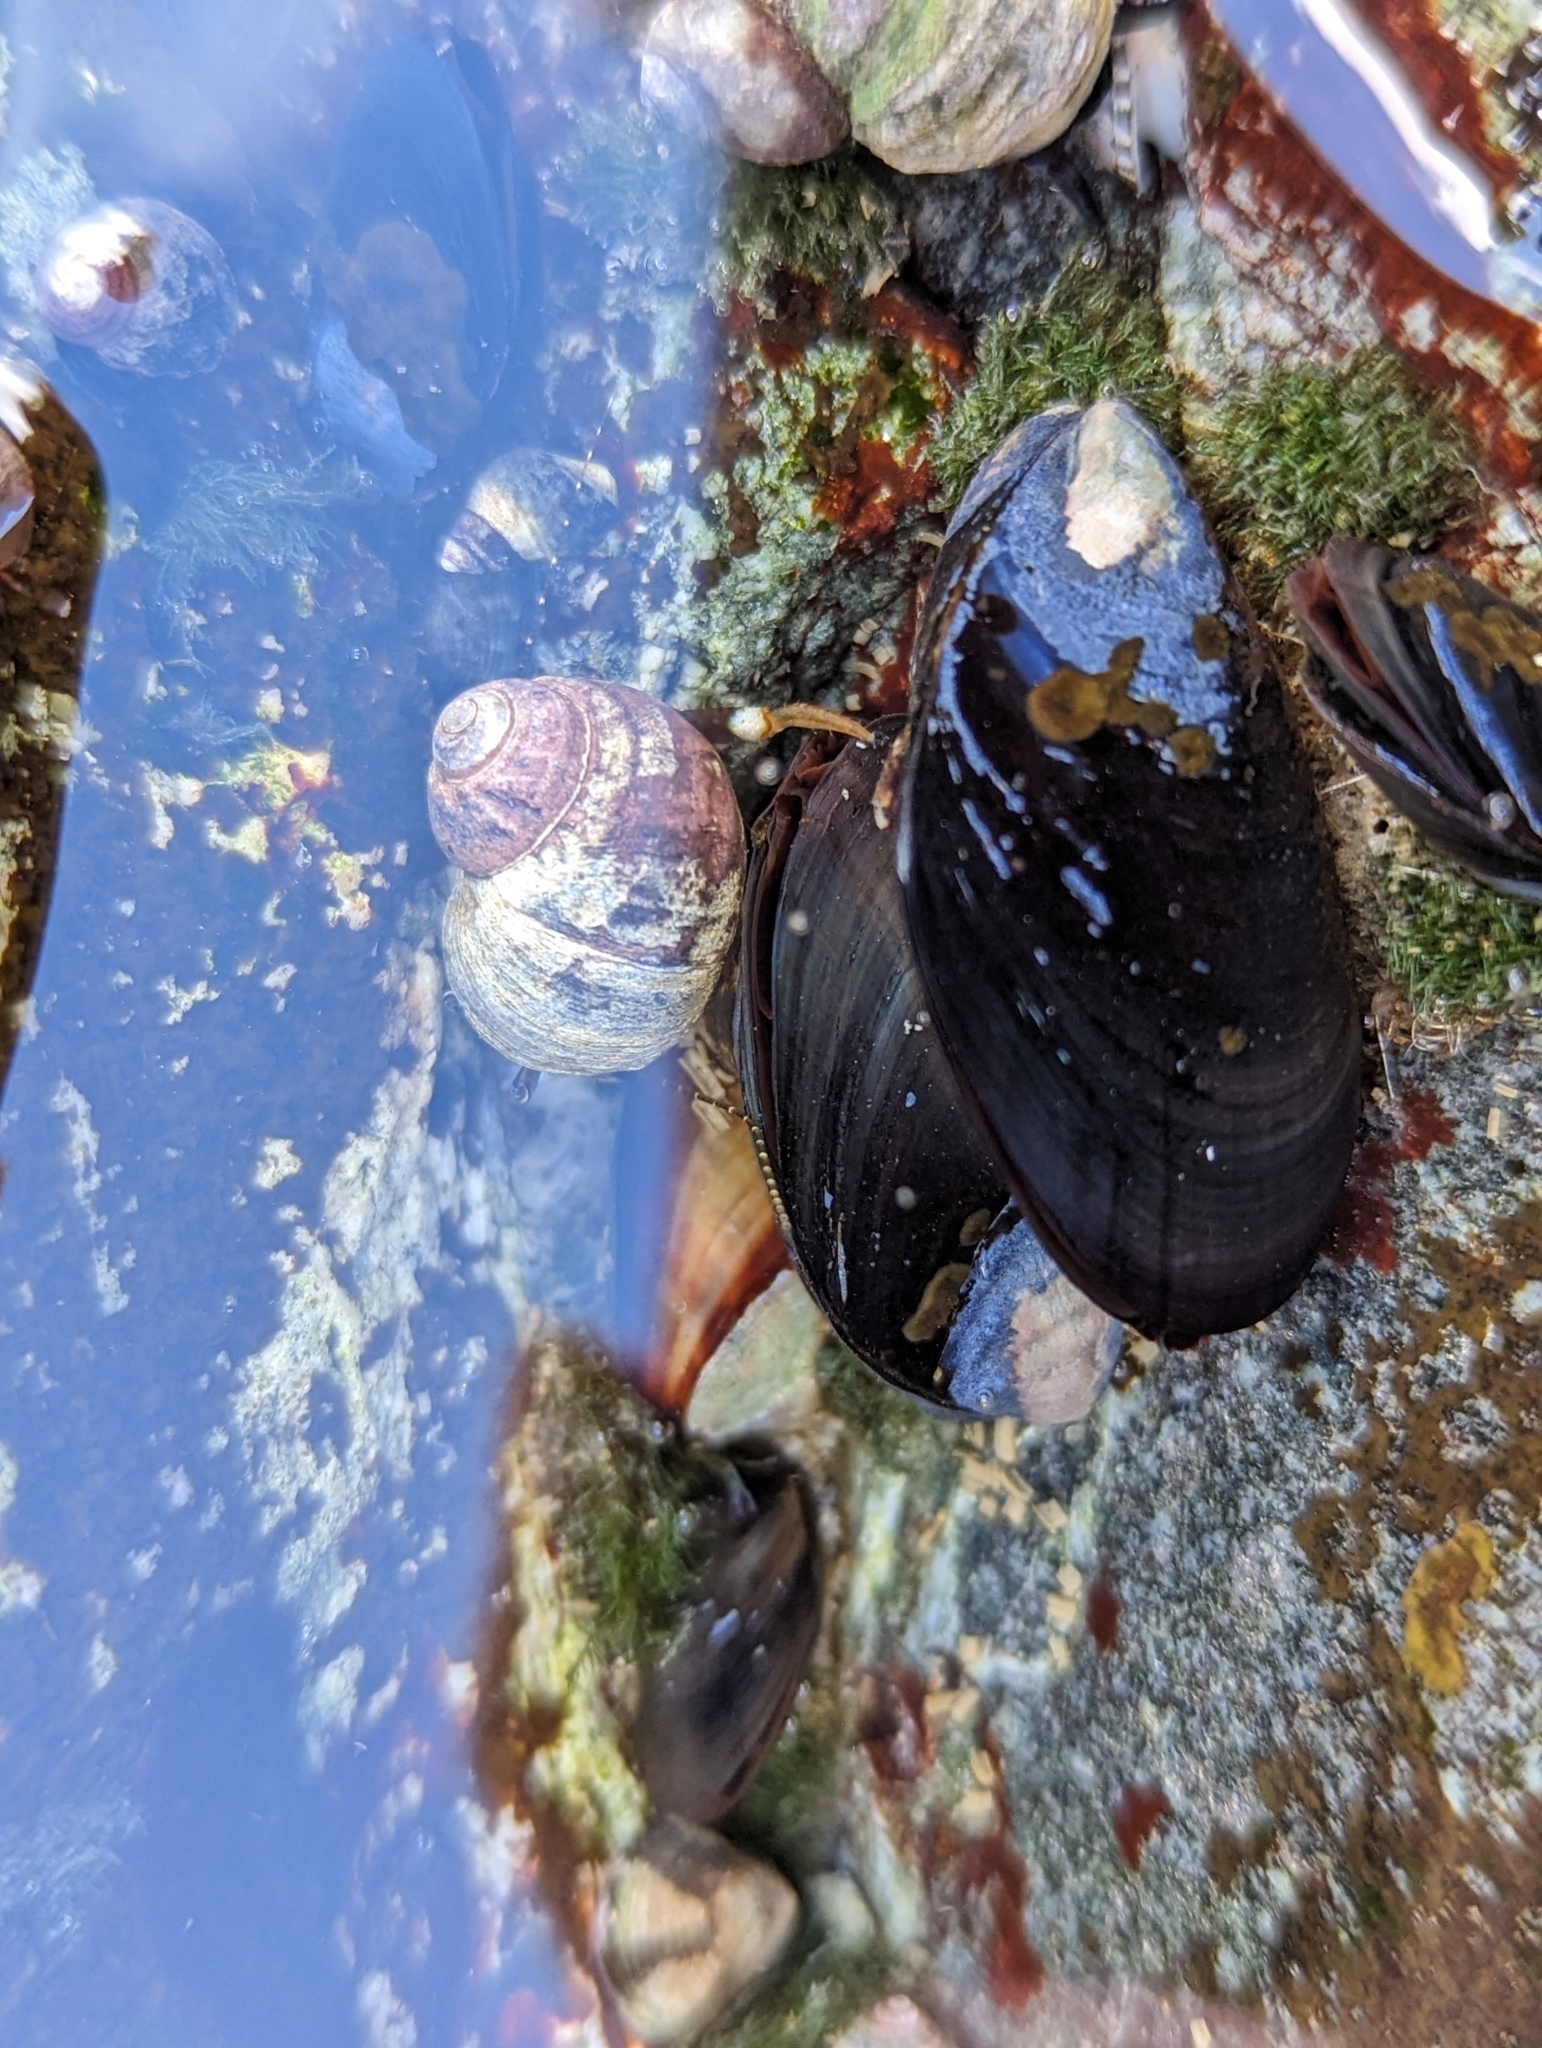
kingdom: Animalia
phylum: Mollusca
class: Bivalvia
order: Mytilida
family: Mytilidae
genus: Mytilus
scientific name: Mytilus
